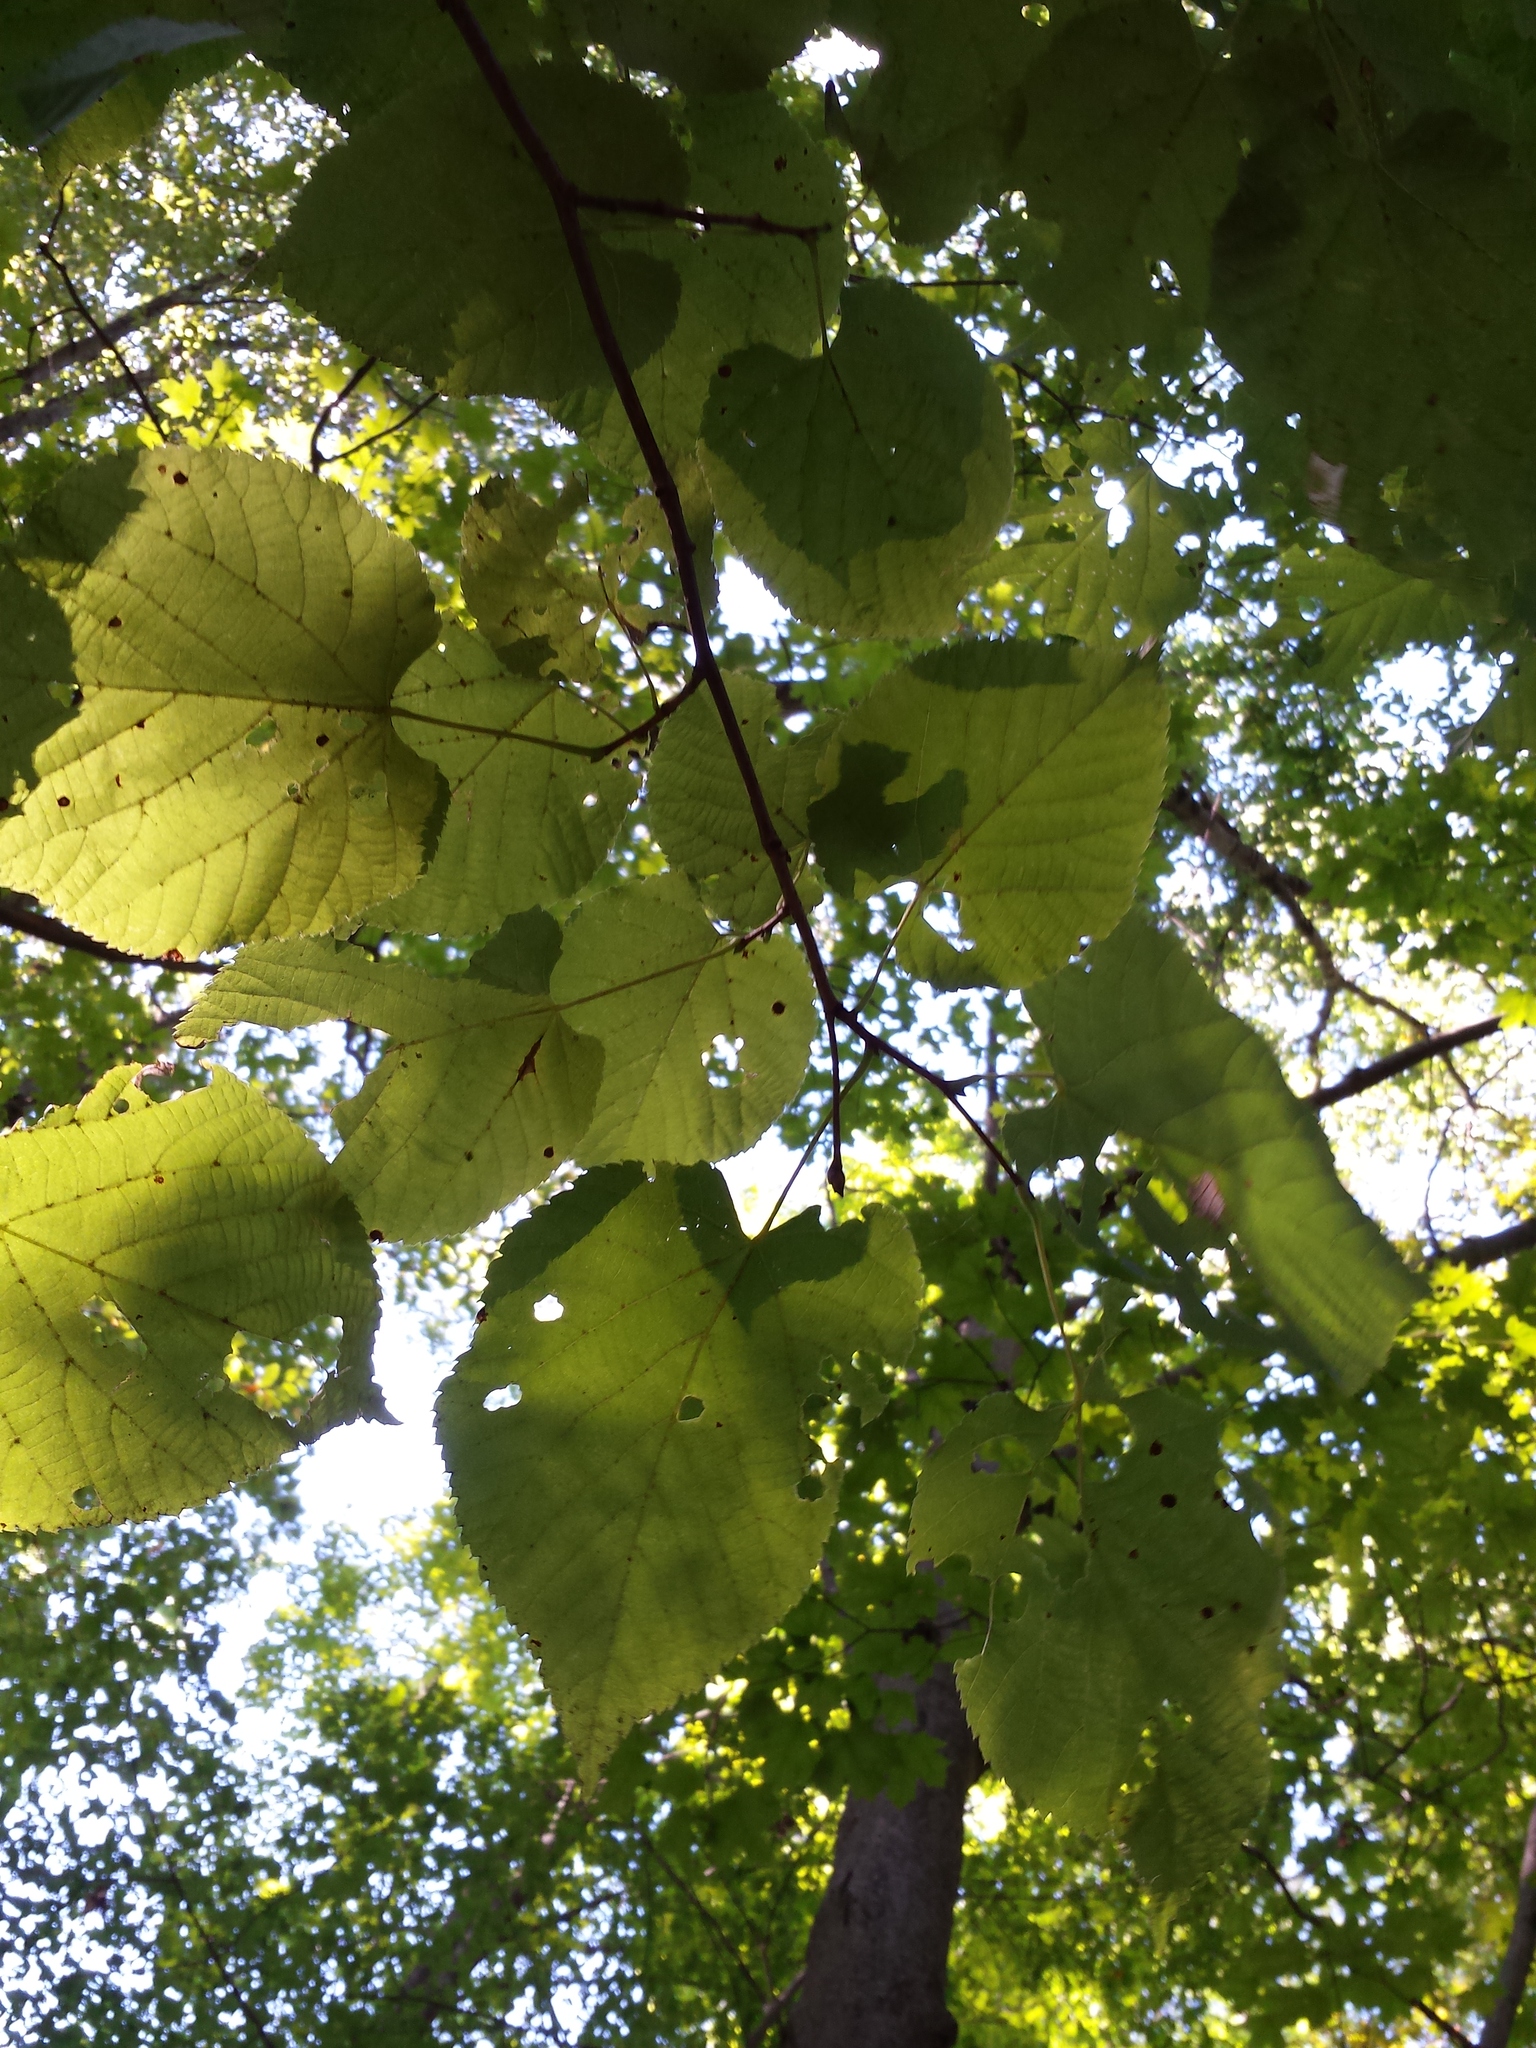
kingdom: Plantae
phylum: Tracheophyta
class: Magnoliopsida
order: Malvales
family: Malvaceae
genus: Tilia
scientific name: Tilia americana
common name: Basswood
